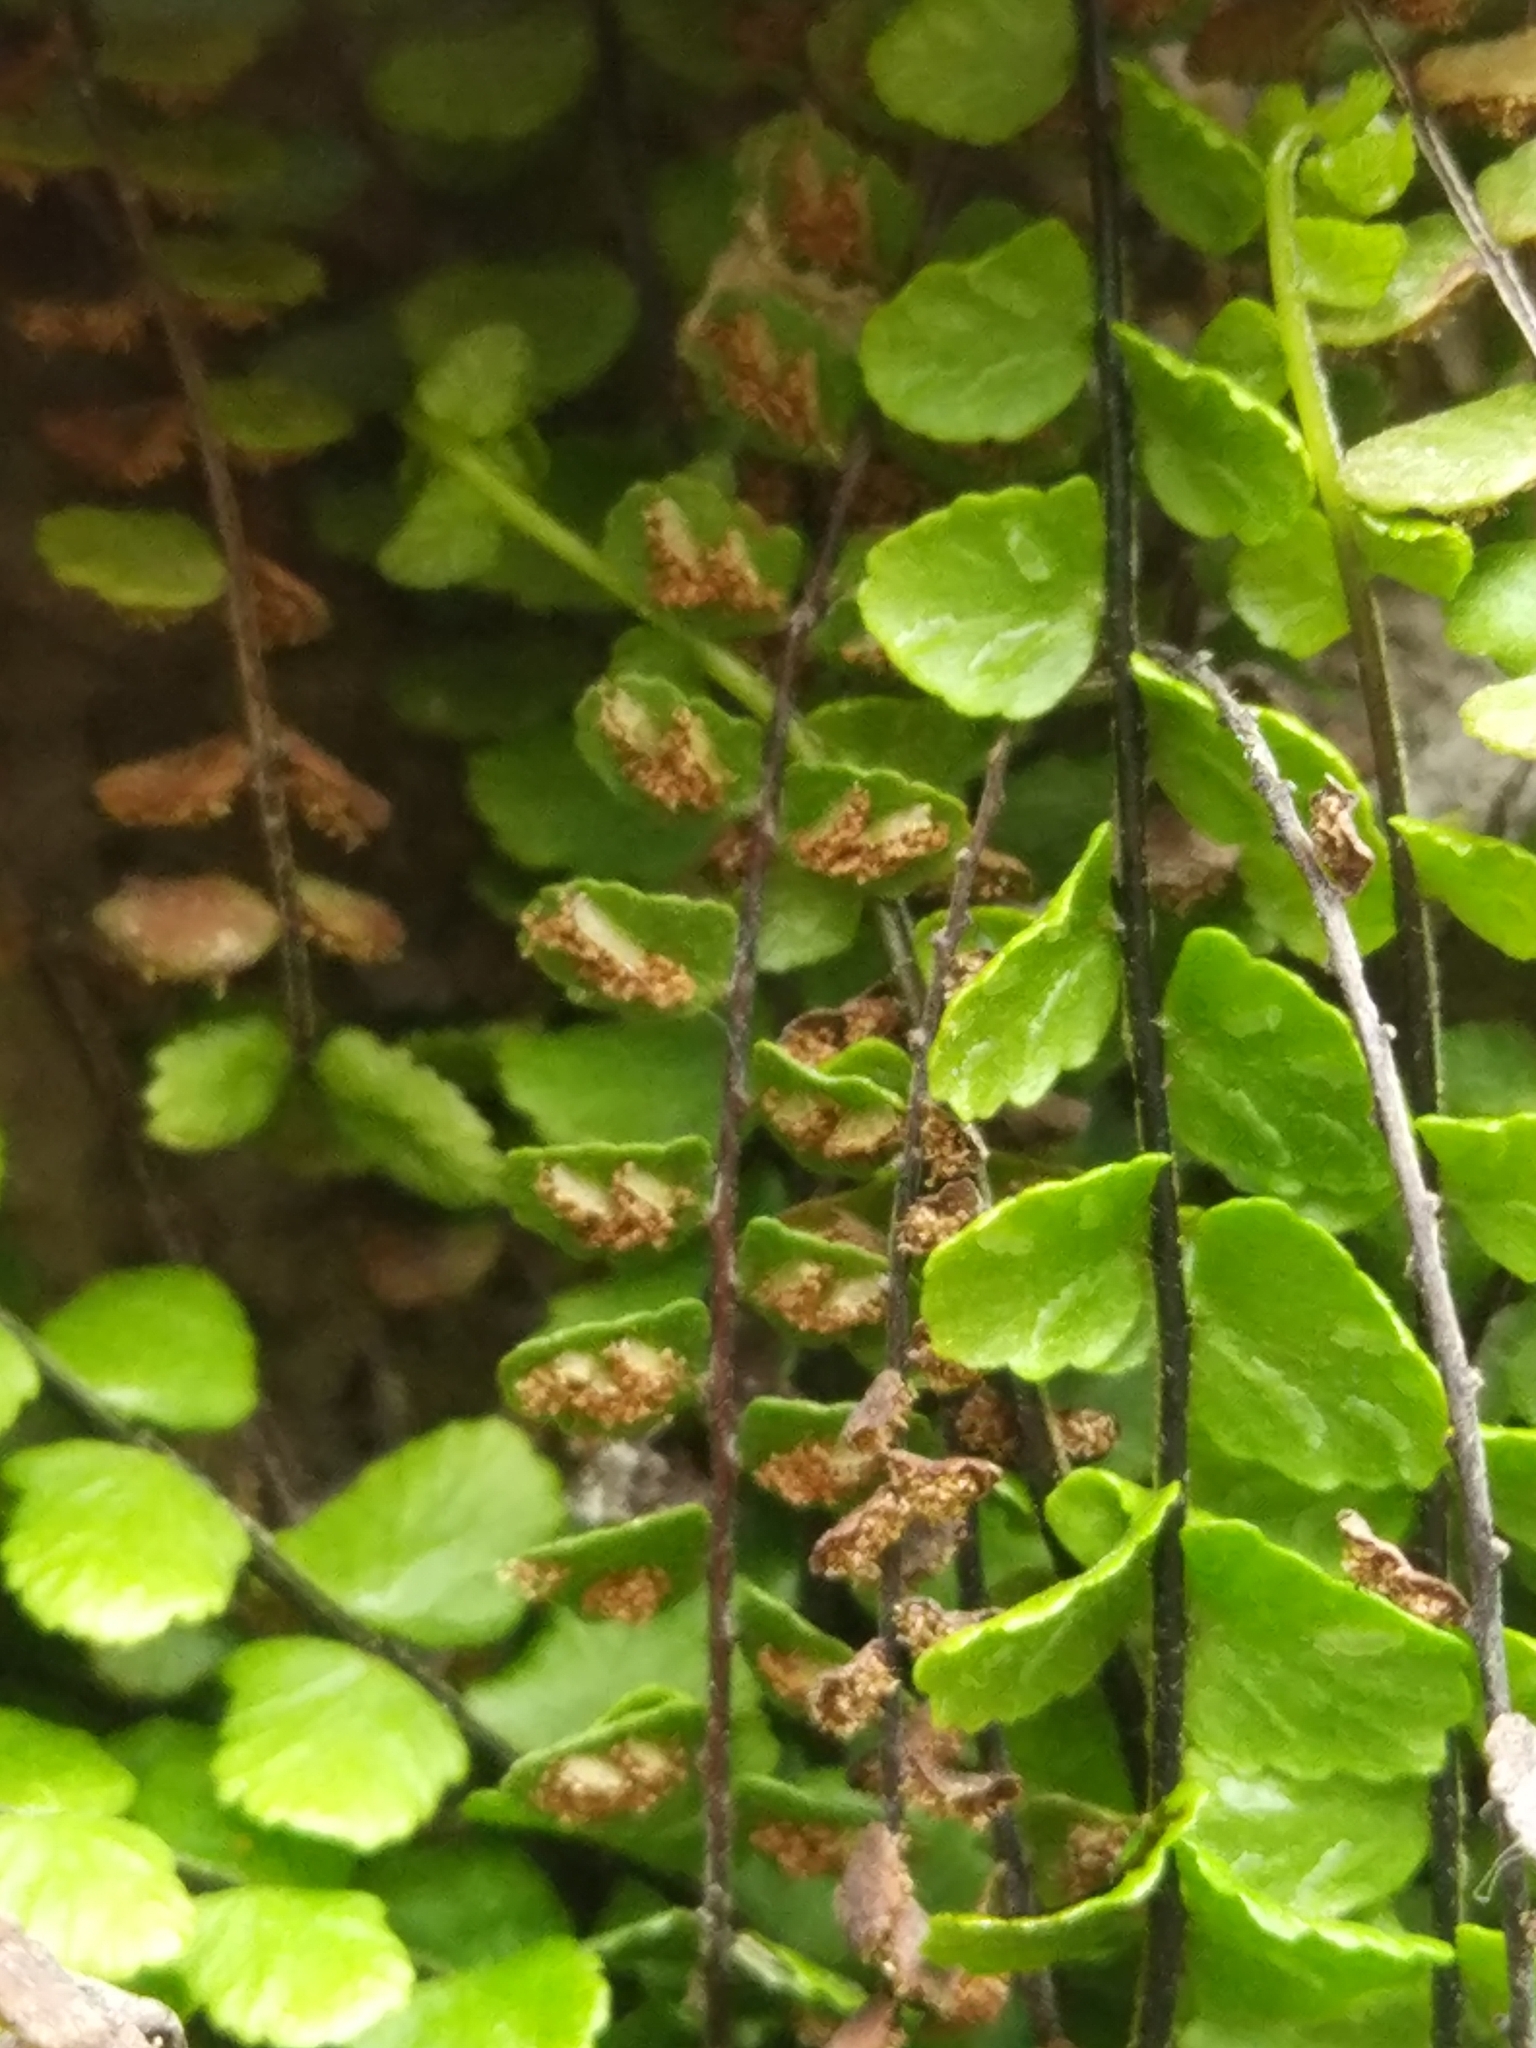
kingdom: Plantae
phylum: Tracheophyta
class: Polypodiopsida
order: Polypodiales
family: Aspleniaceae
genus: Asplenium
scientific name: Asplenium trichomanes
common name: Maidenhair spleenwort
